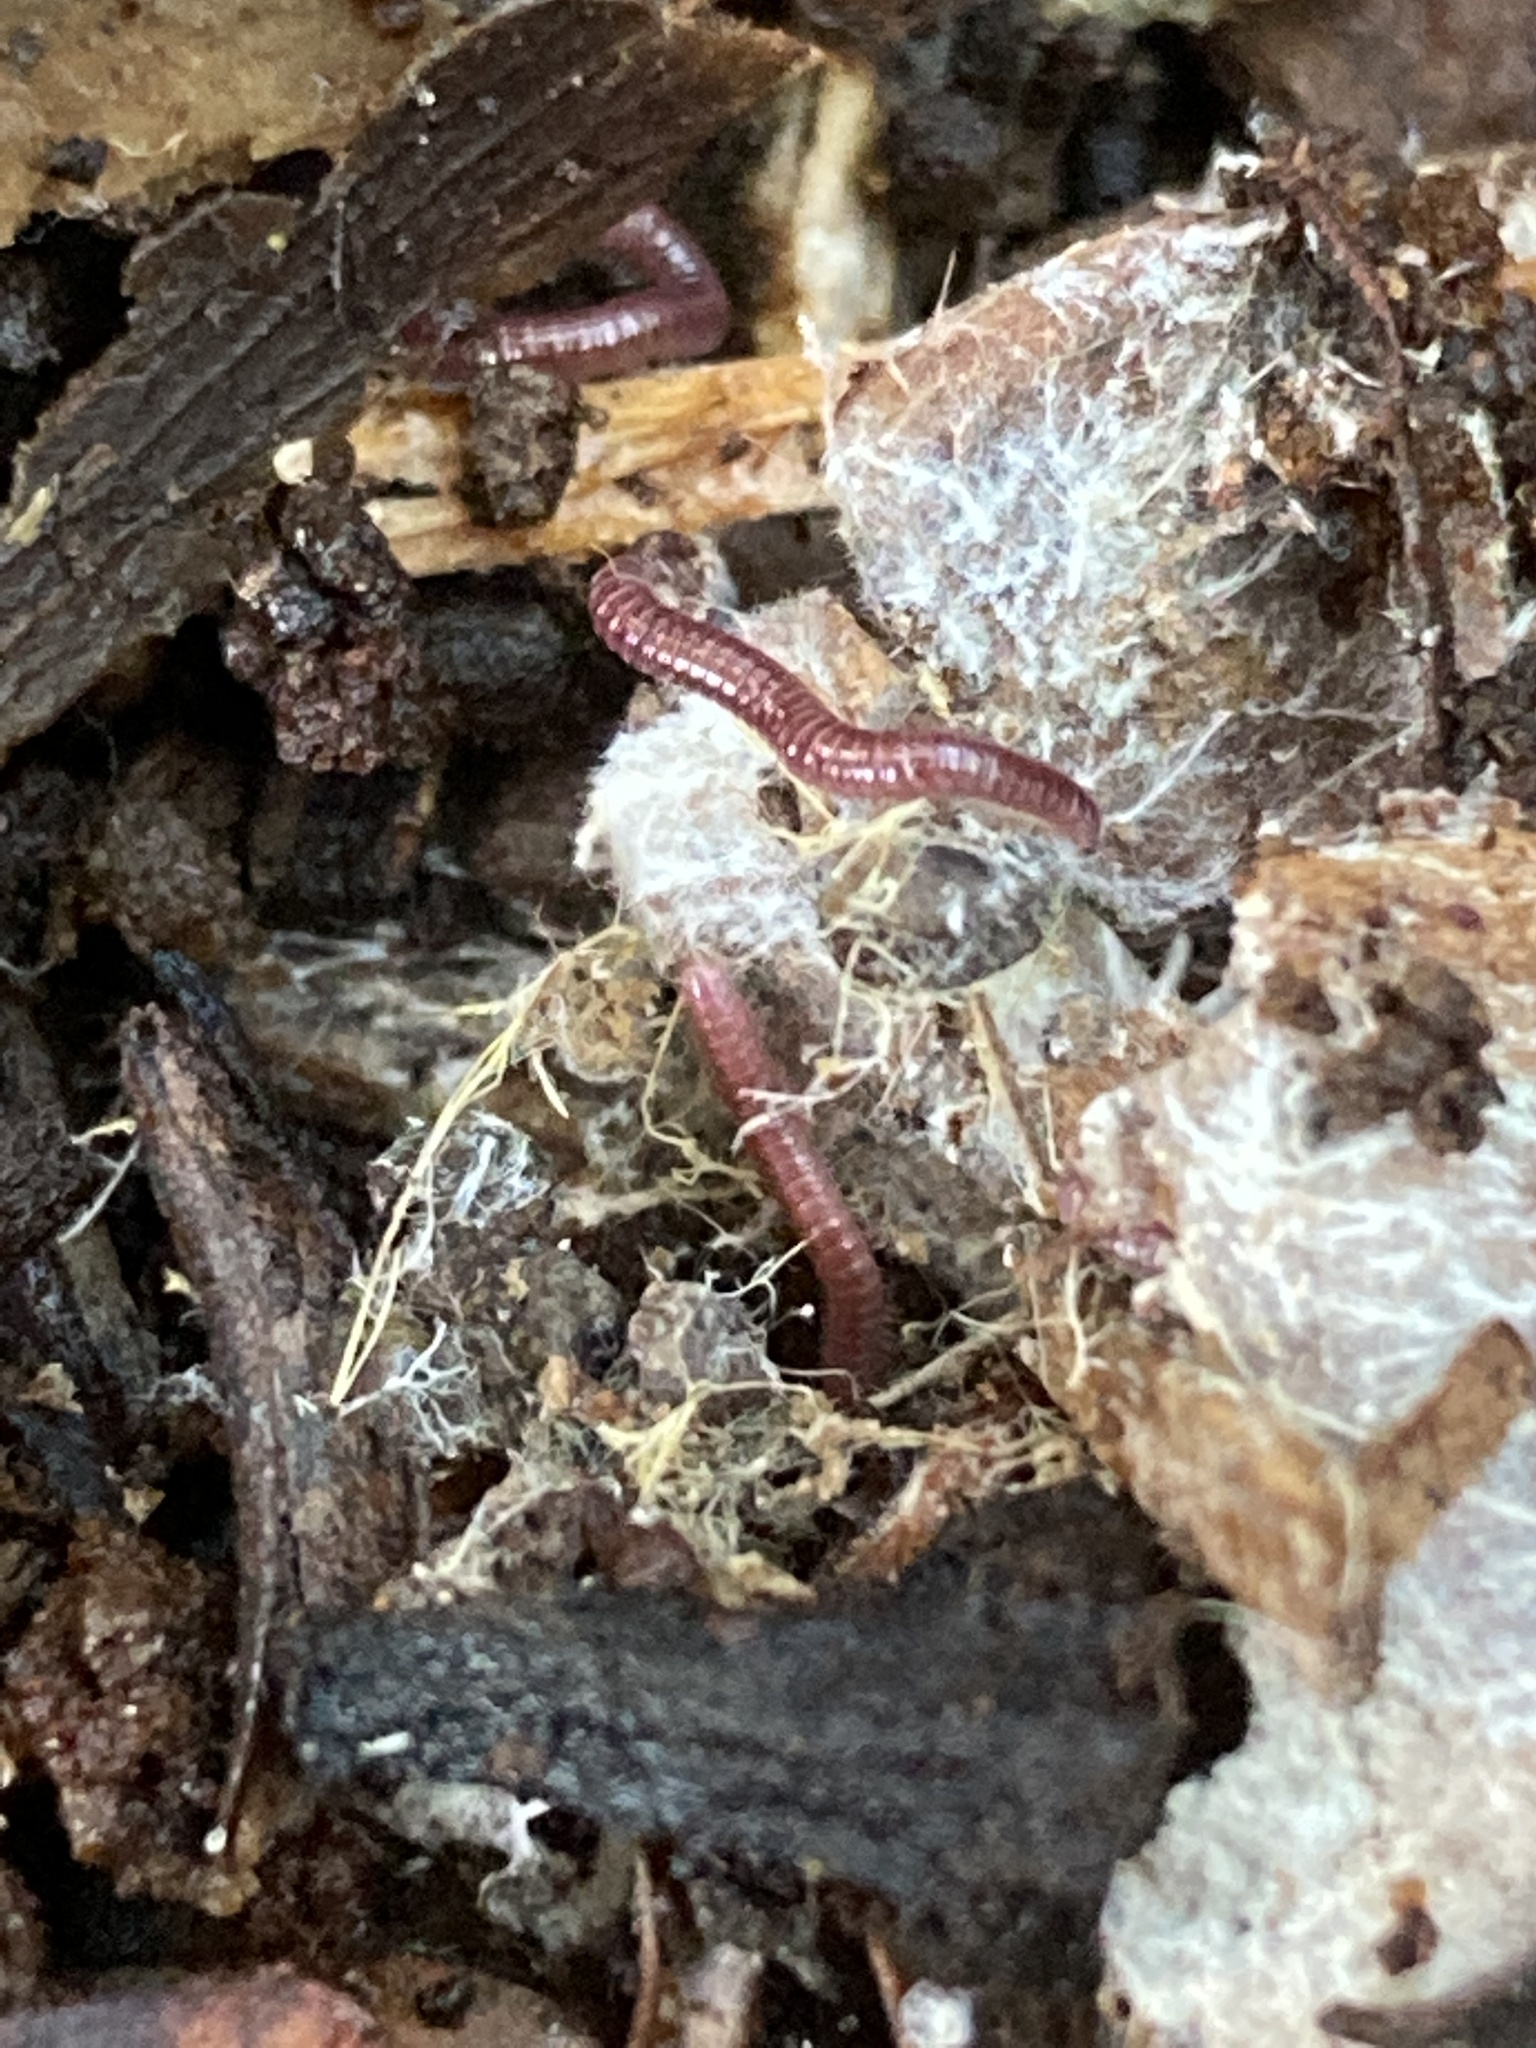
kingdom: Animalia
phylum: Arthropoda
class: Diplopoda
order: Polyzoniida
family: Siphonotidae
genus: Rhinotus
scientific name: Rhinotus purpureus
